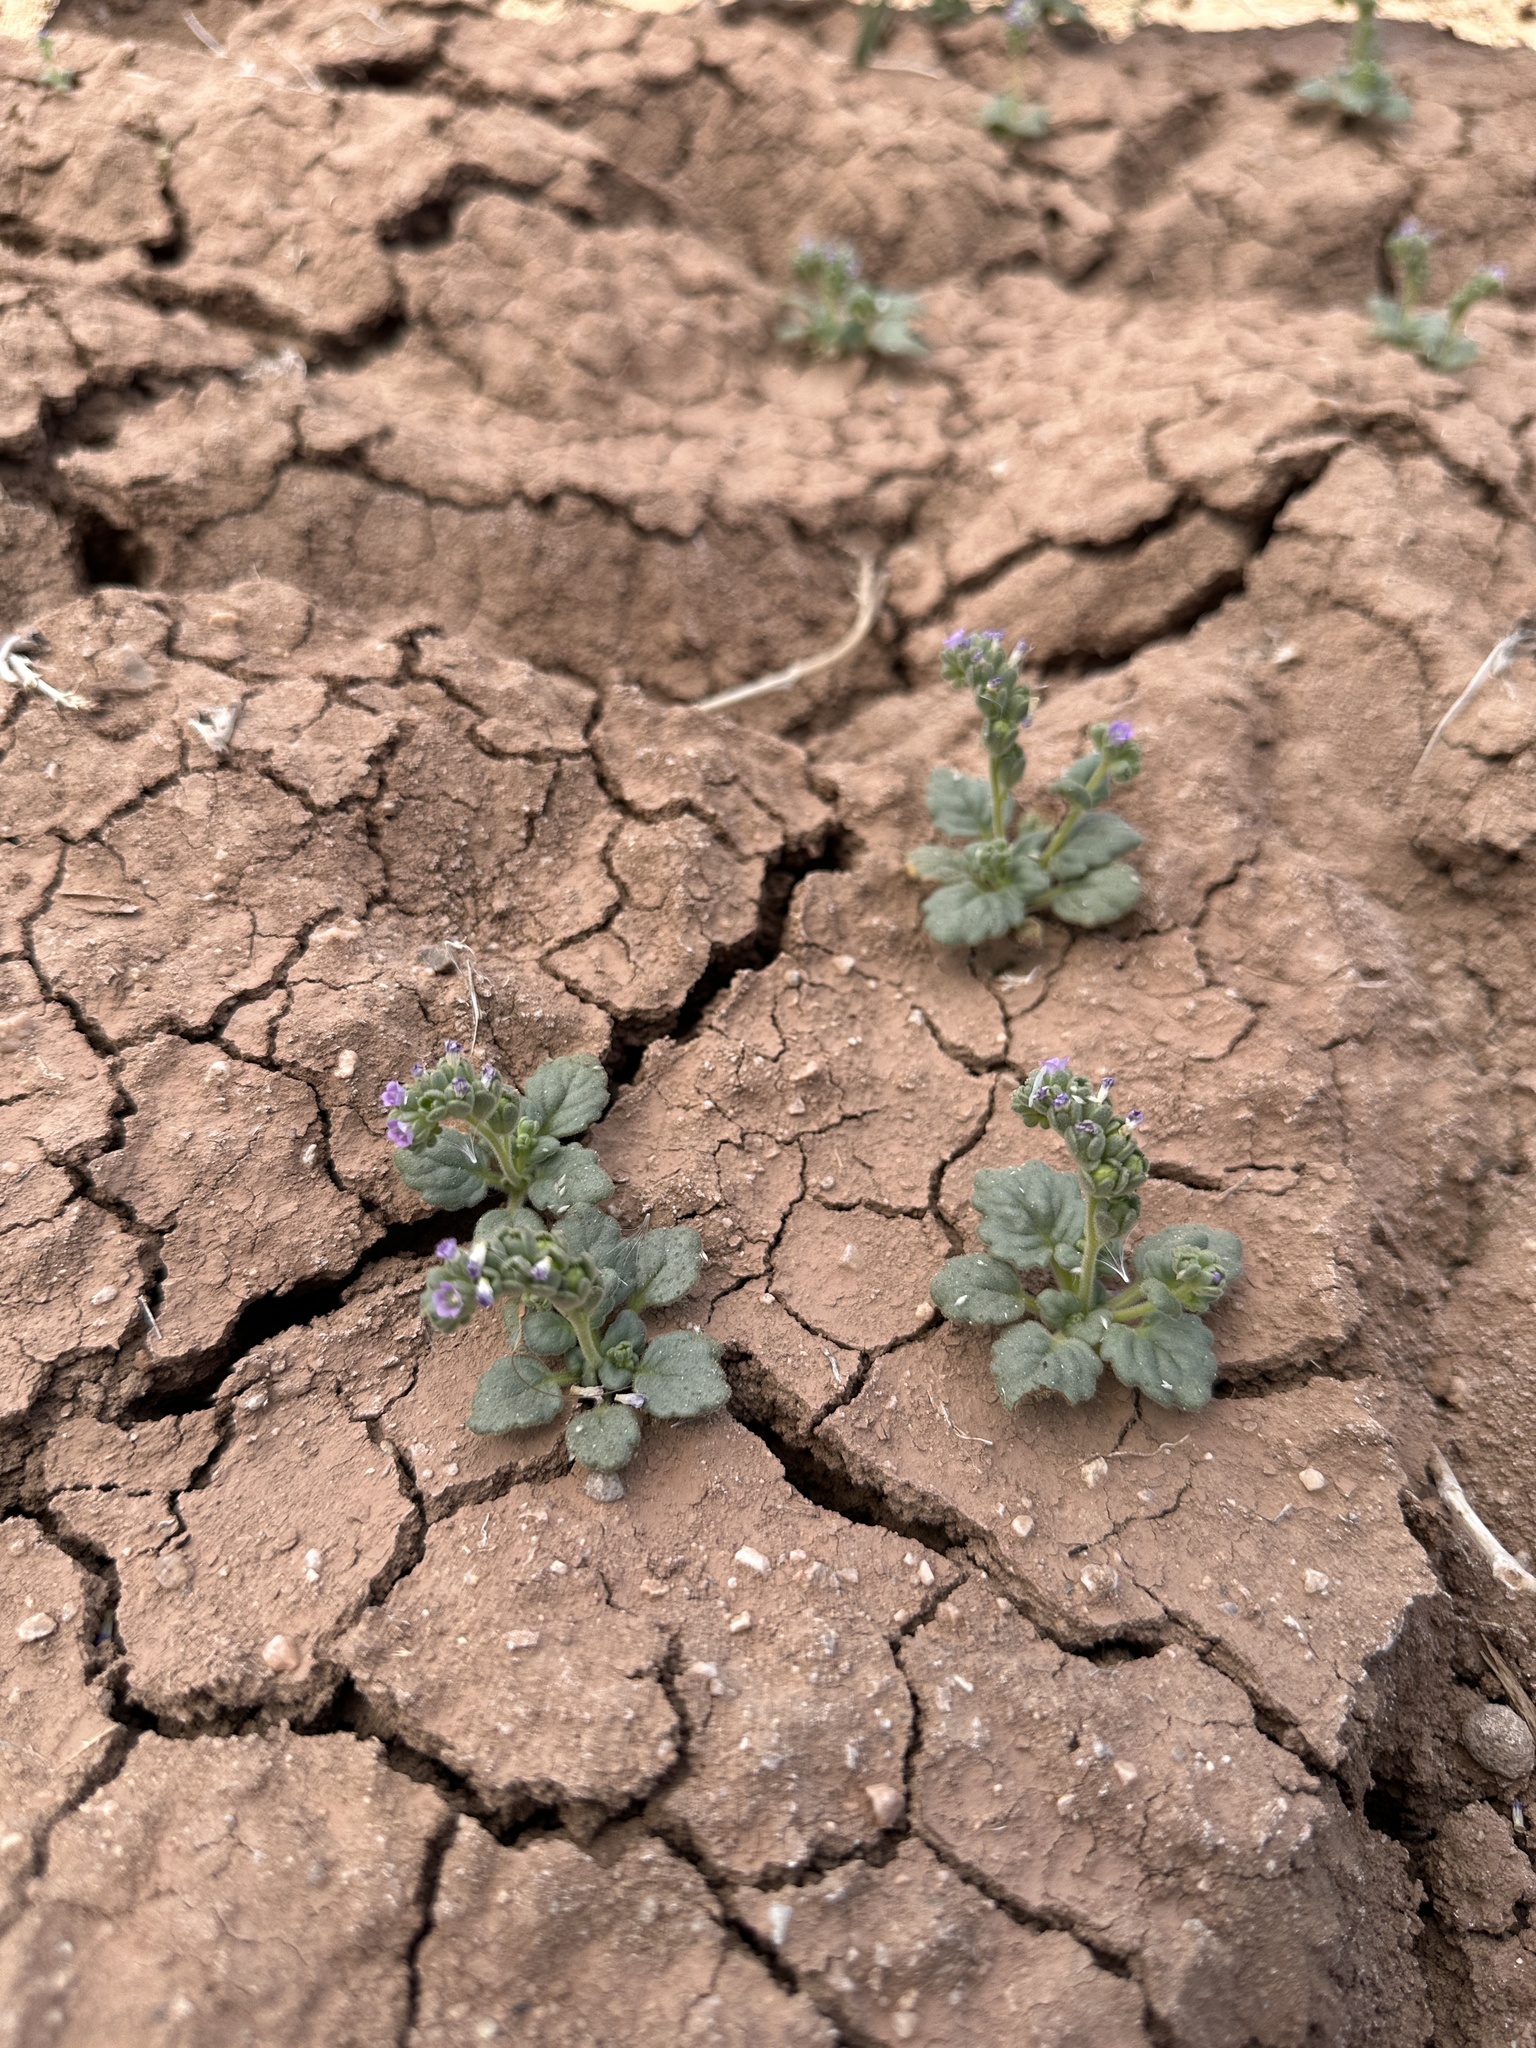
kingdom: Plantae
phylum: Tracheophyta
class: Magnoliopsida
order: Boraginales
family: Hydrophyllaceae
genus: Phacelia
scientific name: Phacelia parishii
